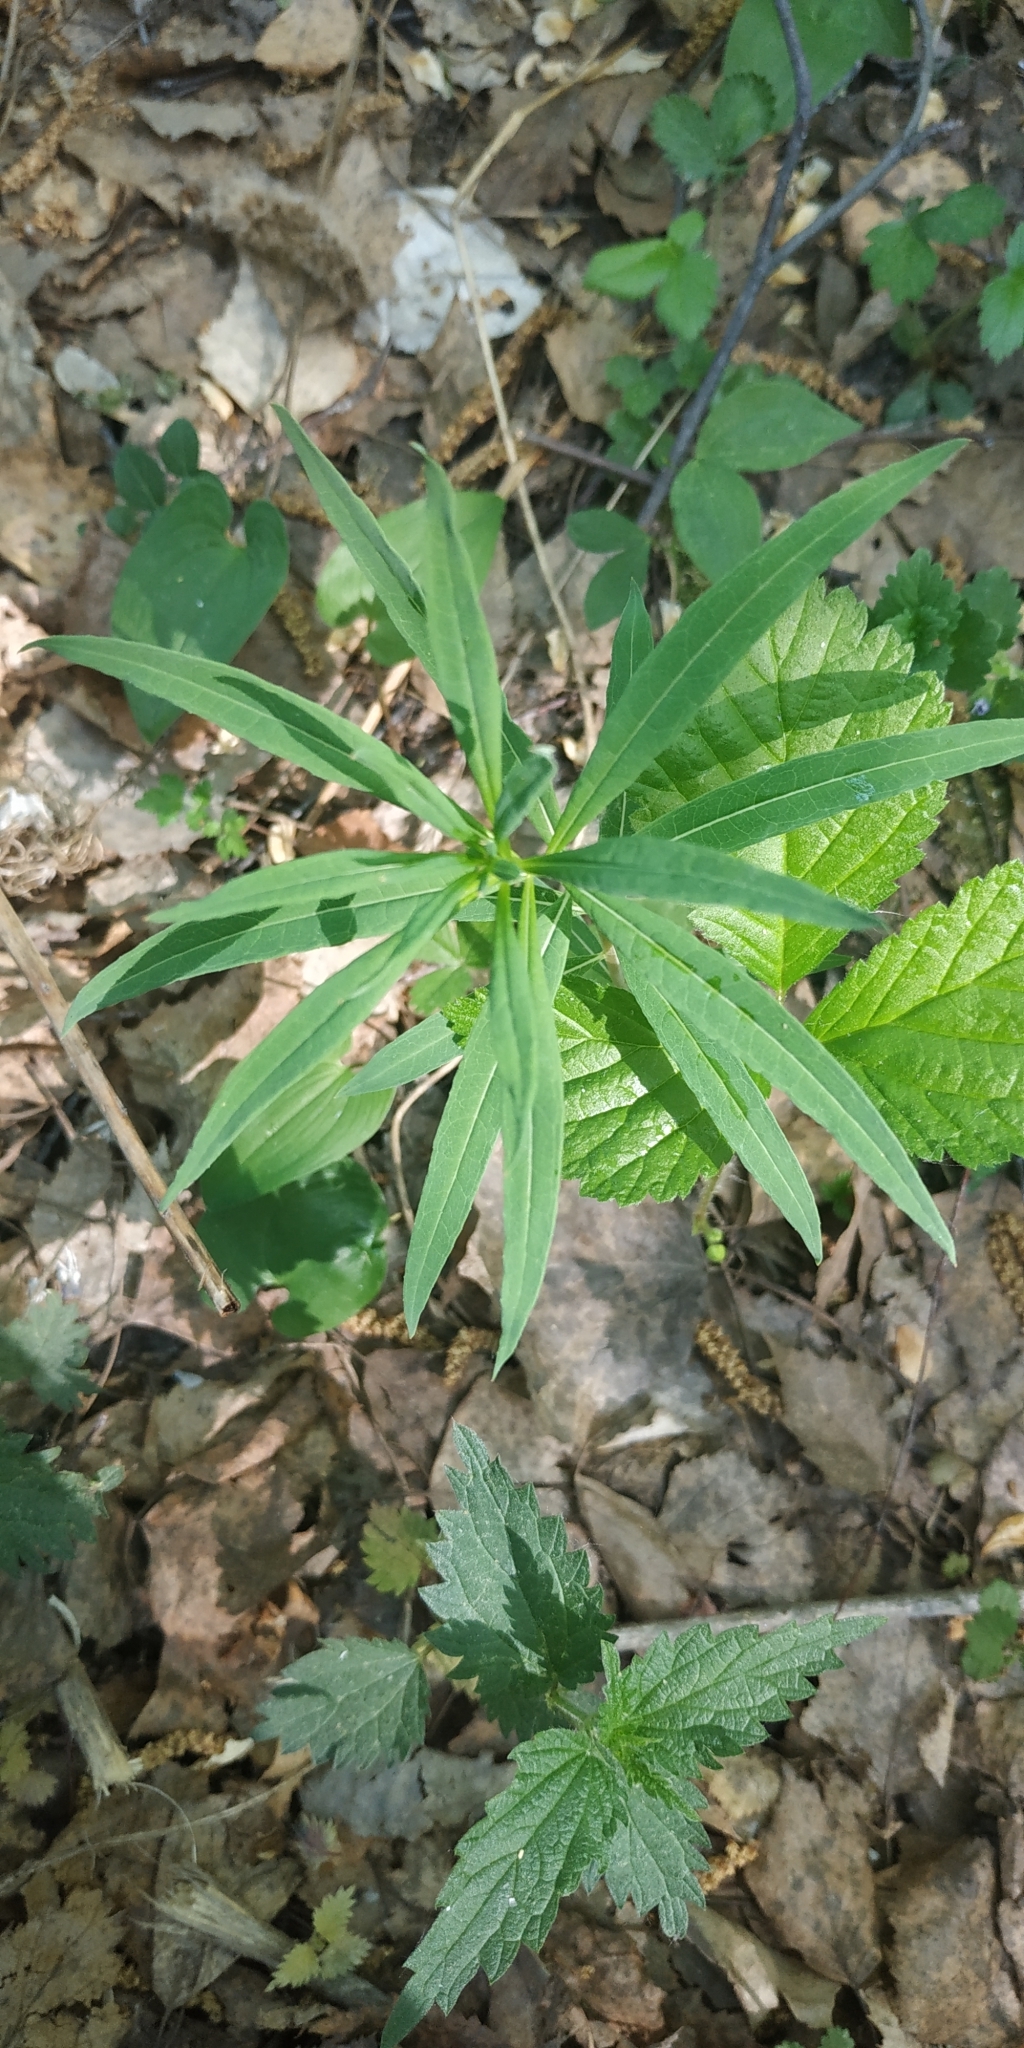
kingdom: Plantae
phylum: Tracheophyta
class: Magnoliopsida
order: Myrtales
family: Onagraceae
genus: Chamaenerion
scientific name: Chamaenerion angustifolium
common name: Fireweed
